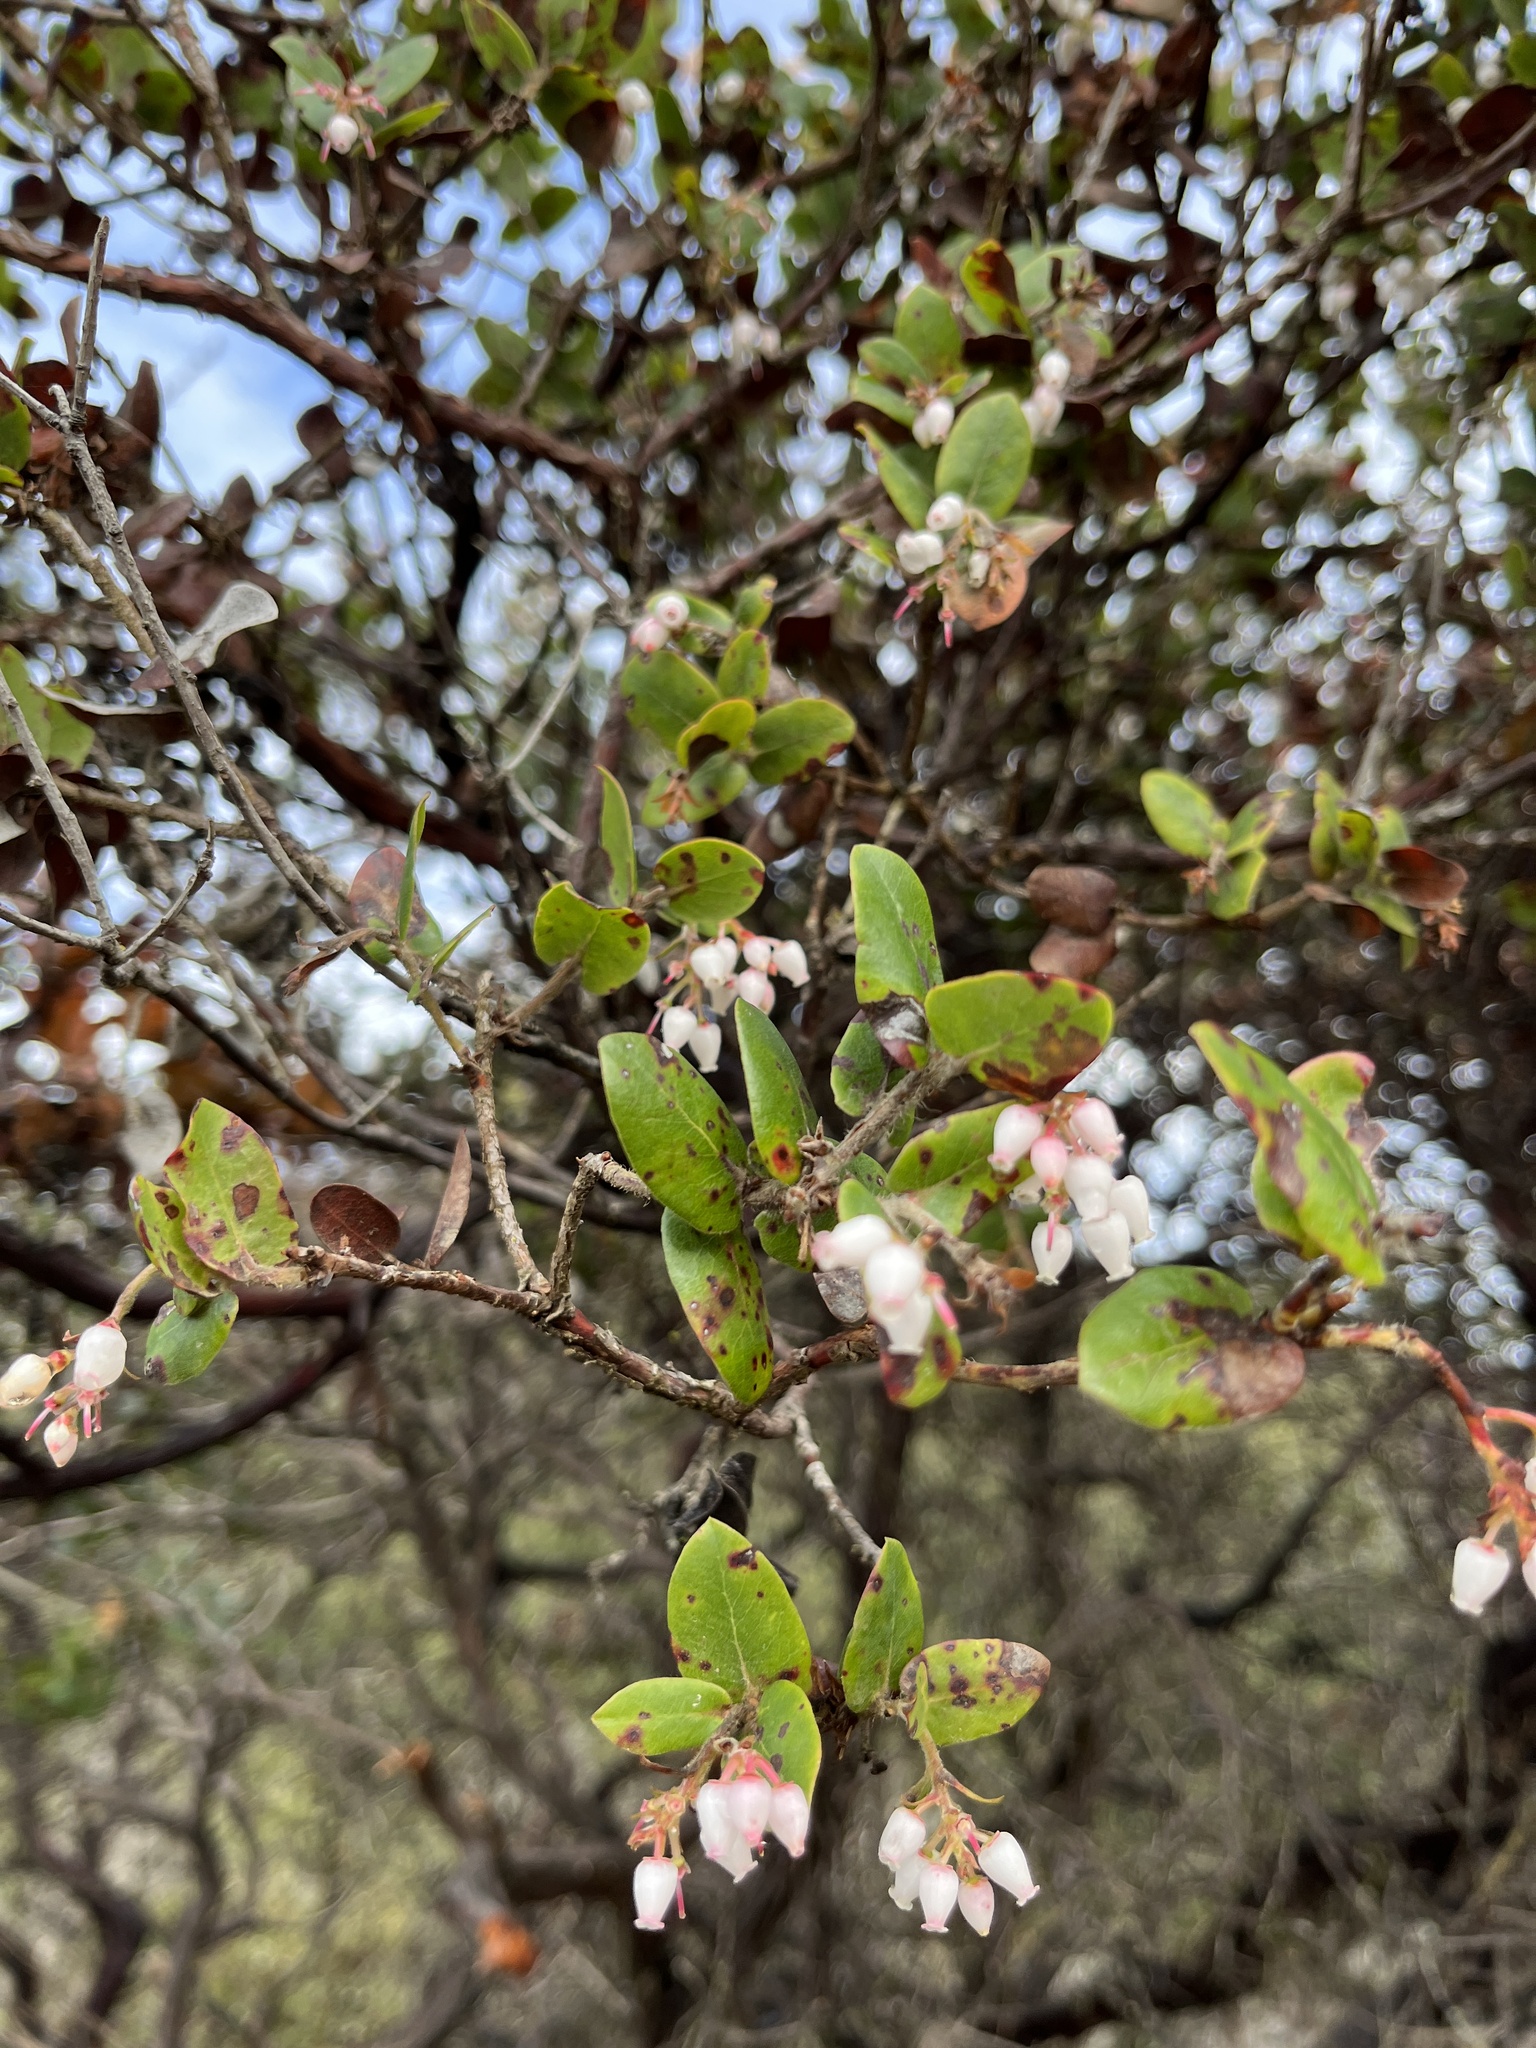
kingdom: Plantae
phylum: Tracheophyta
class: Magnoliopsida
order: Ericales
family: Ericaceae
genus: Arctostaphylos
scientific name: Arctostaphylos pajaroensis
